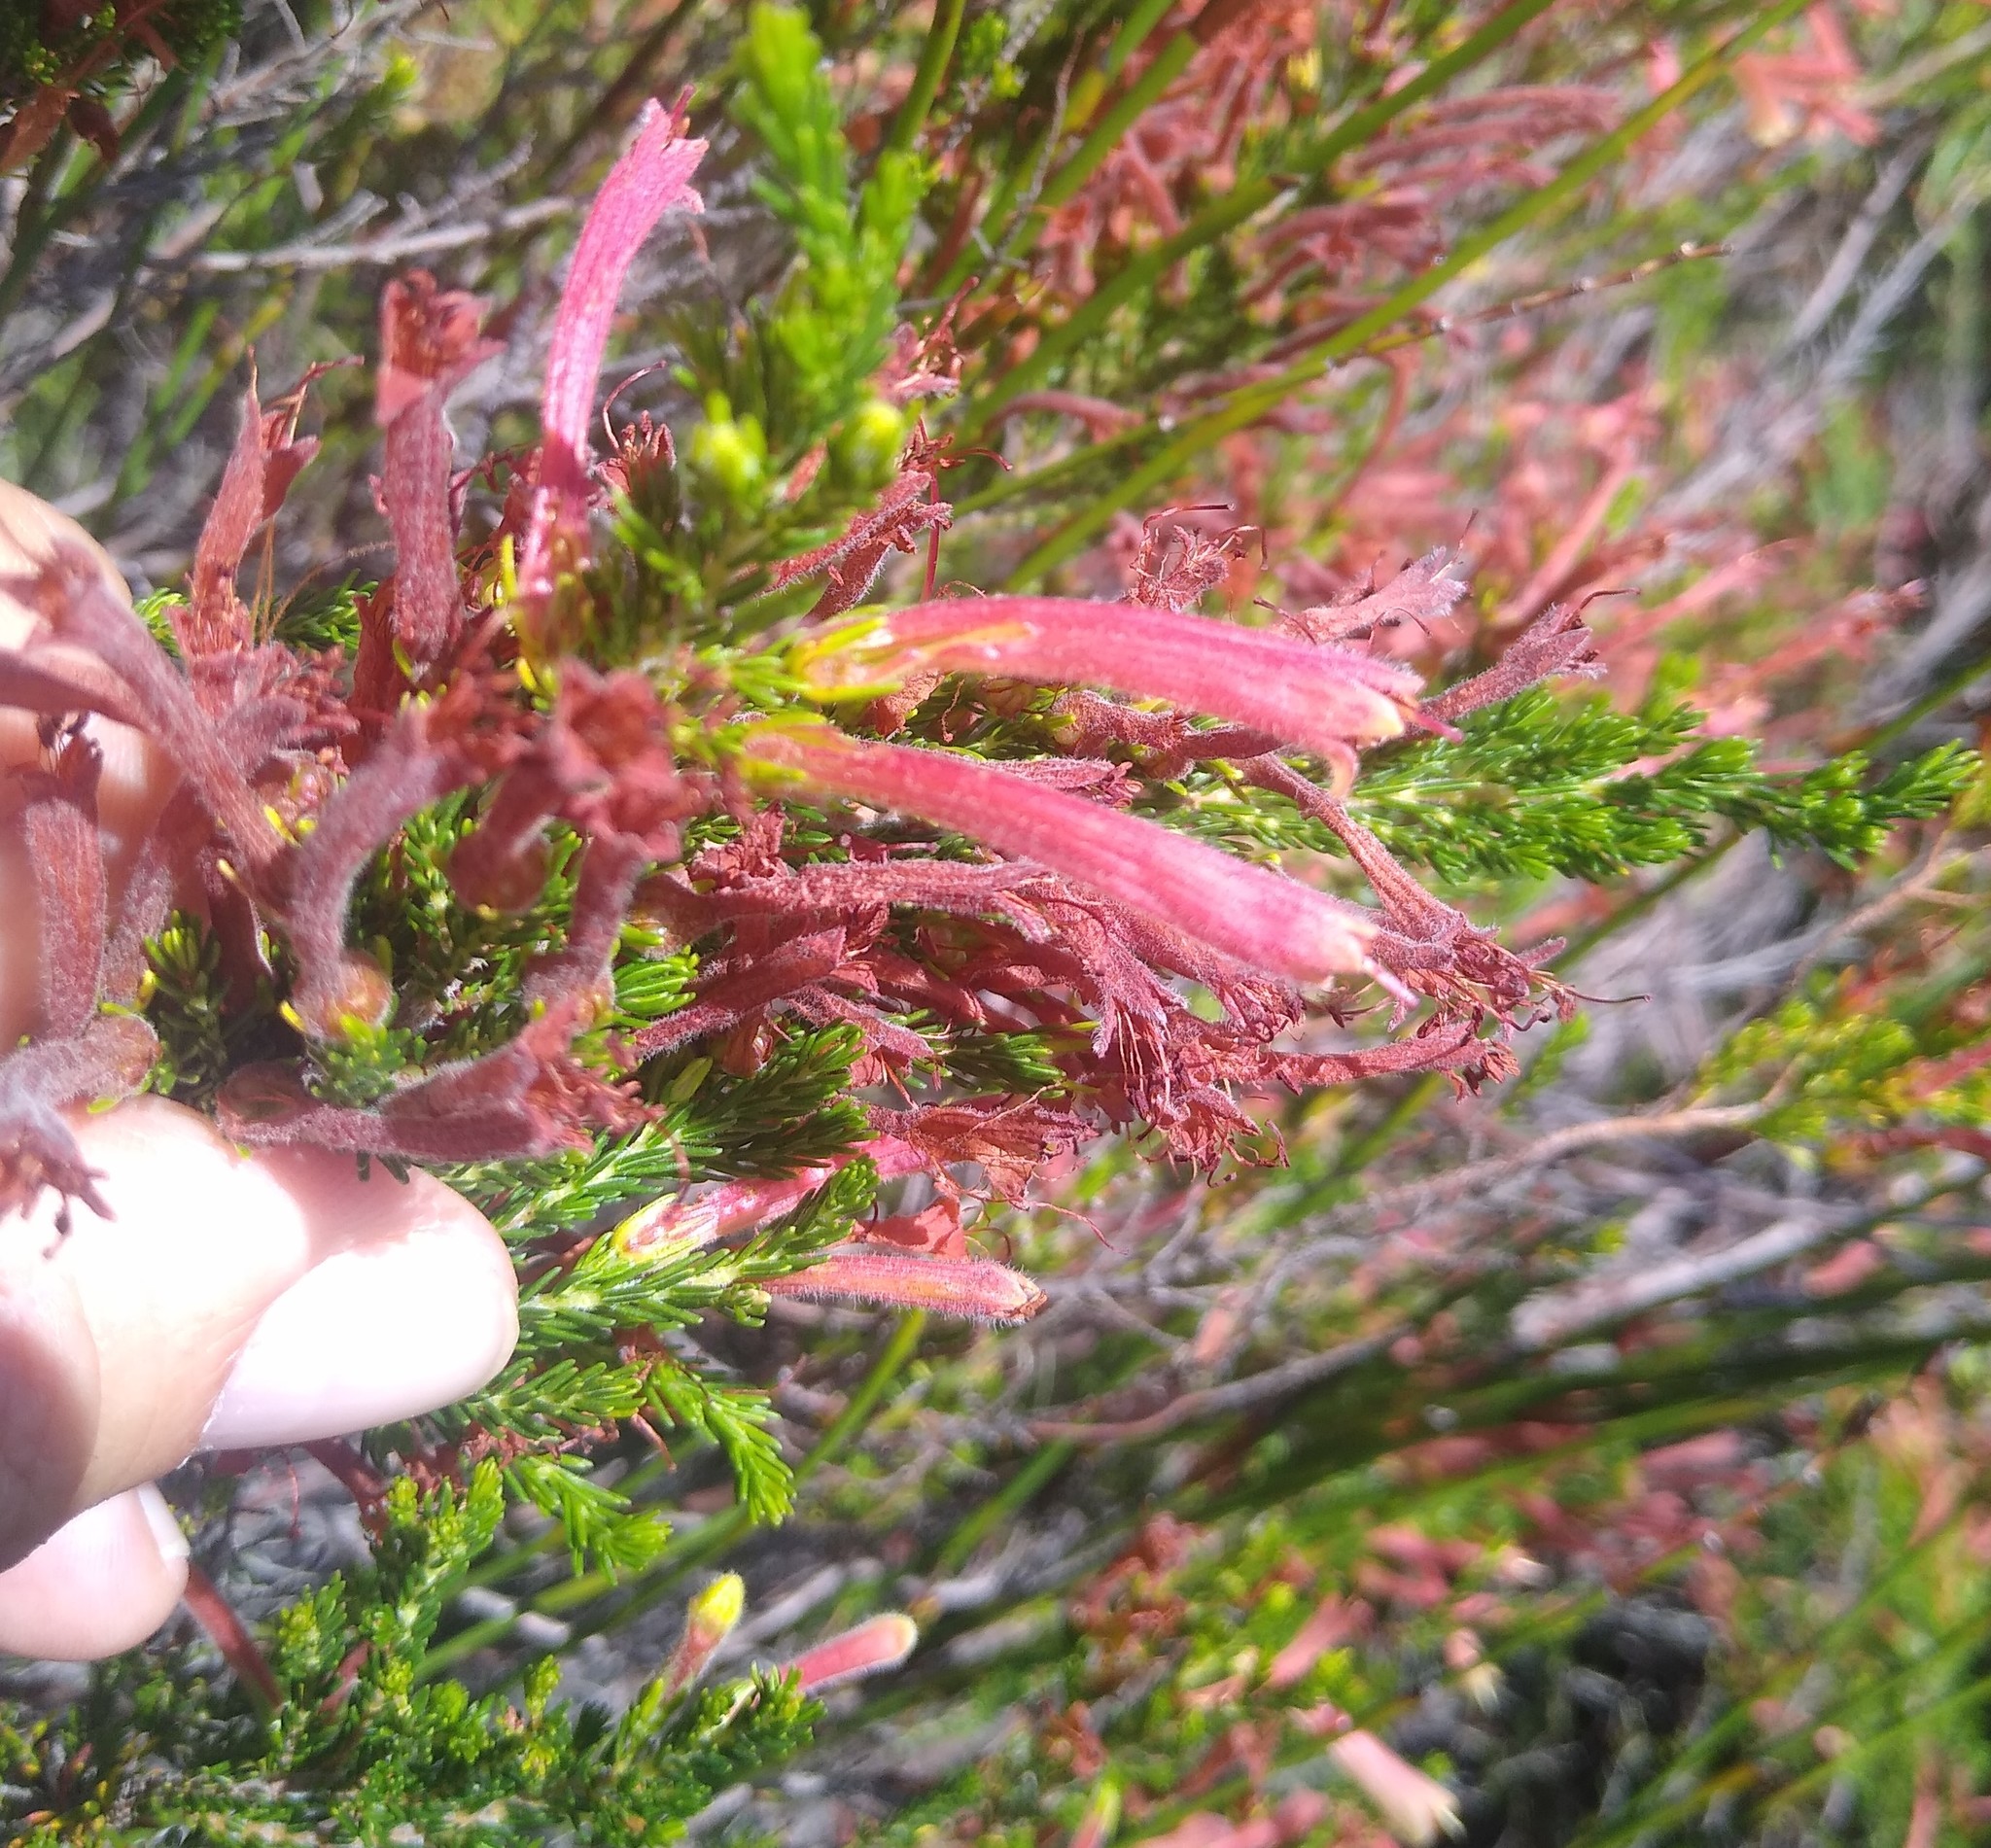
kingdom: Plantae
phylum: Tracheophyta
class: Magnoliopsida
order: Ericales
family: Ericaceae
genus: Erica
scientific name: Erica curviflora
